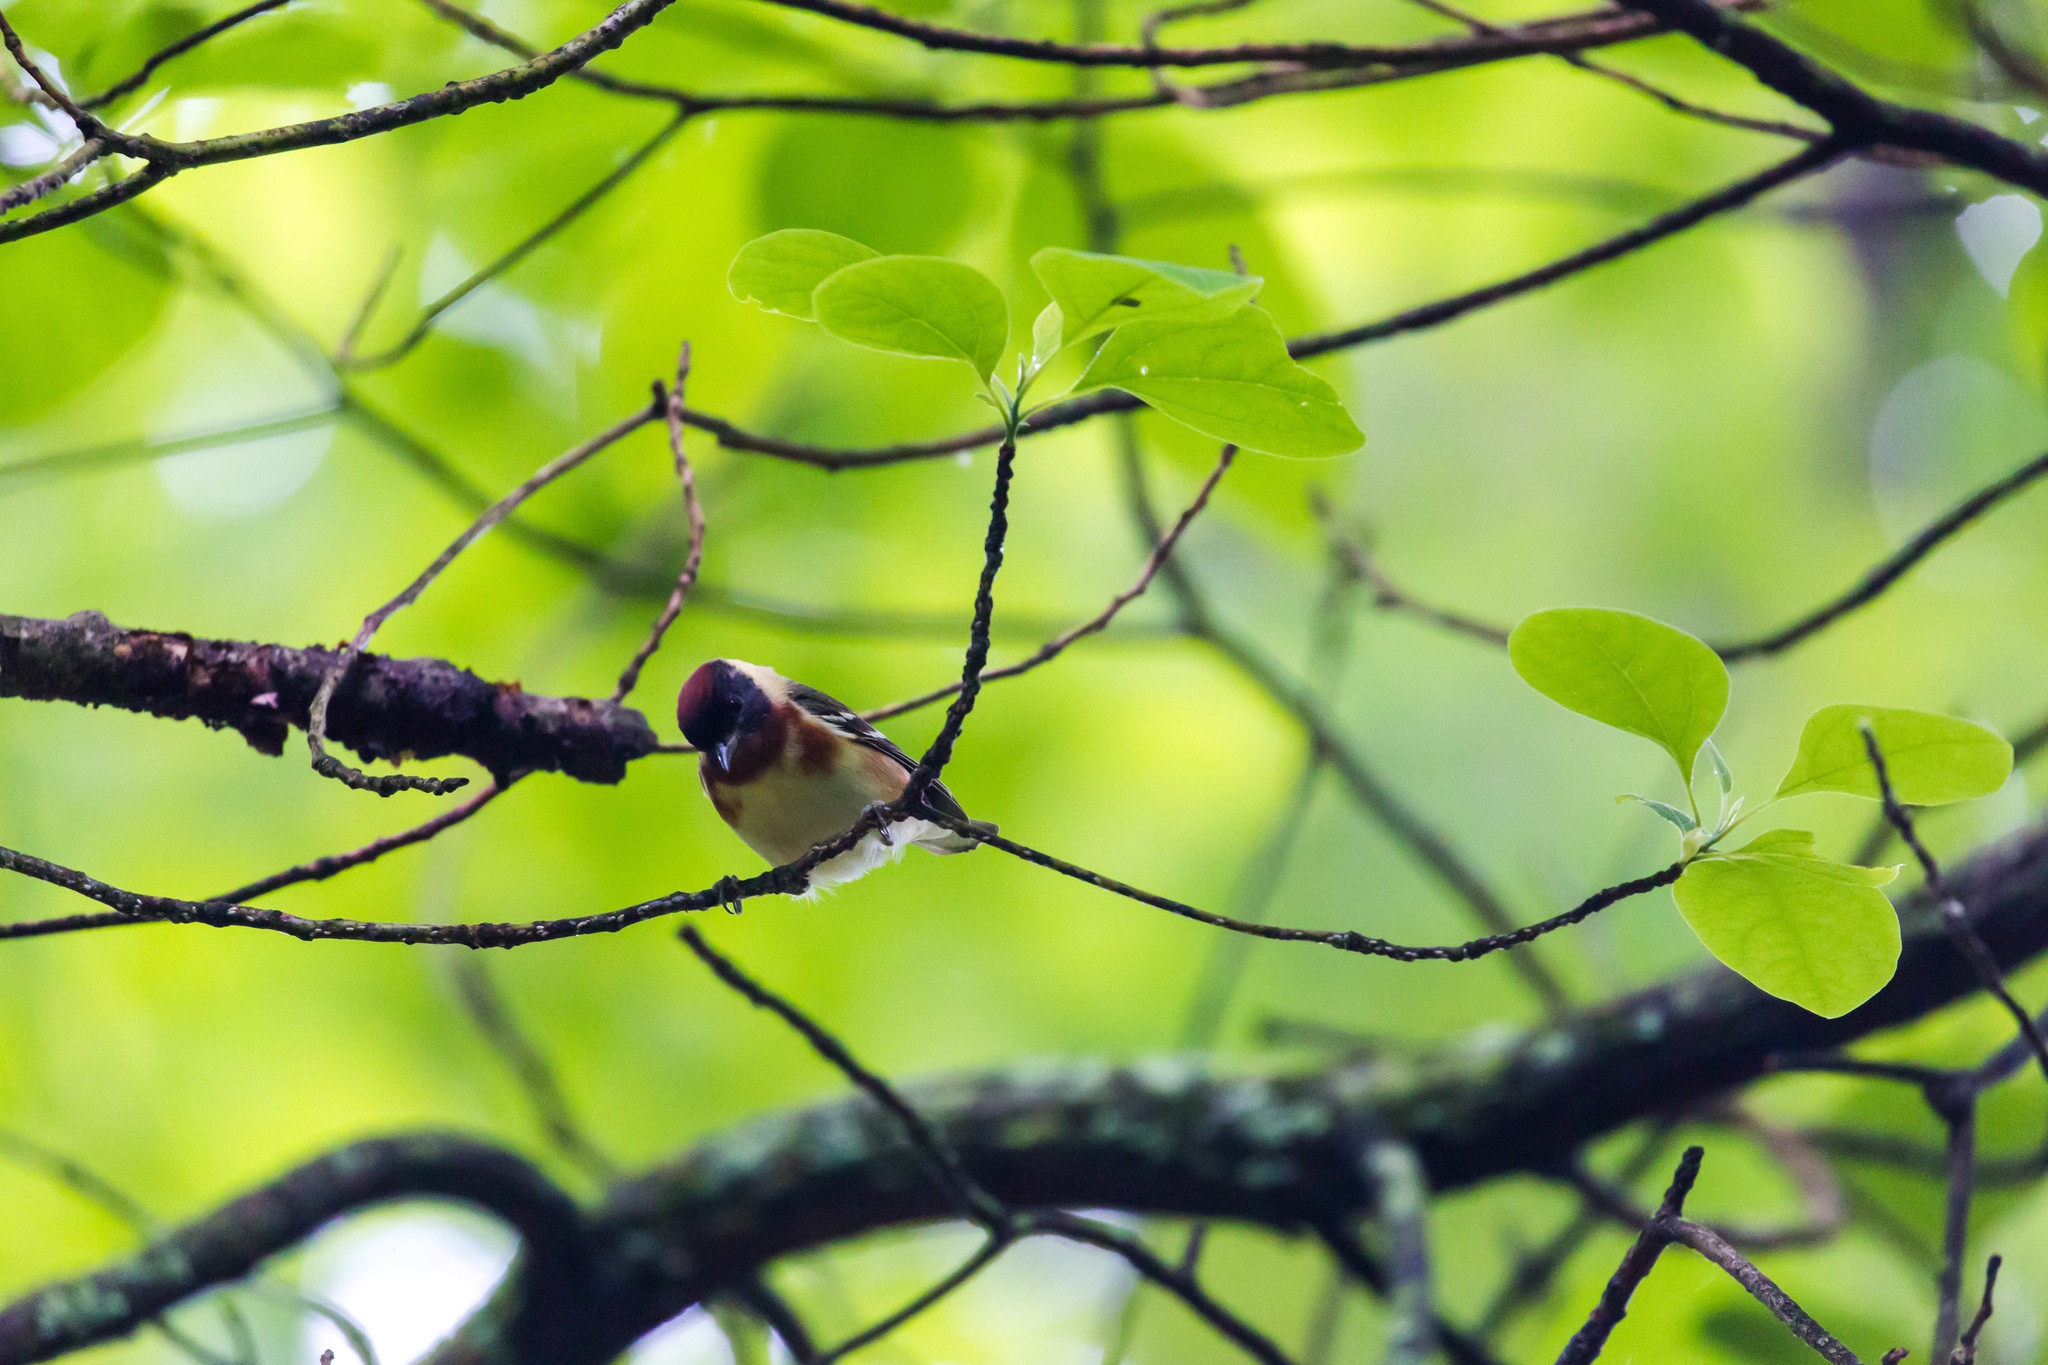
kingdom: Animalia
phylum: Chordata
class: Aves
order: Passeriformes
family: Parulidae
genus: Setophaga
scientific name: Setophaga castanea
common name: Bay-breasted warbler
